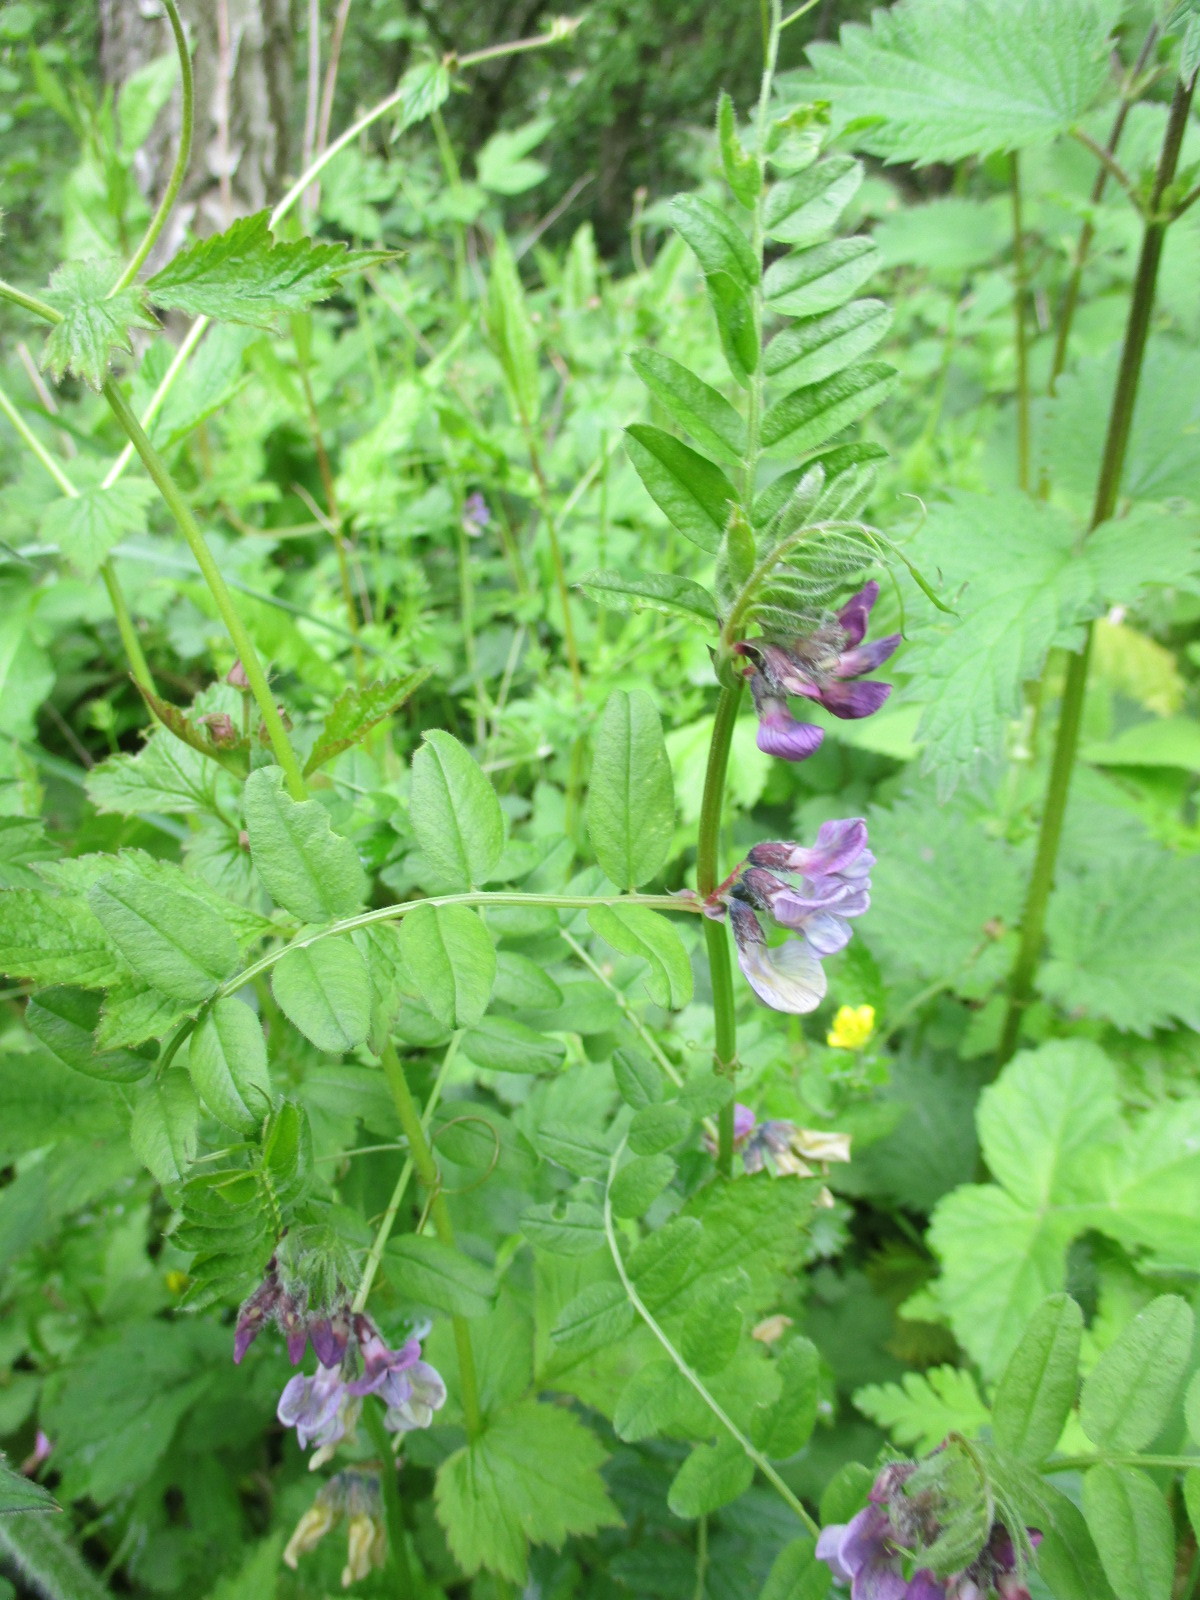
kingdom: Plantae
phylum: Tracheophyta
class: Magnoliopsida
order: Fabales
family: Fabaceae
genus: Vicia
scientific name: Vicia sepium
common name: Bush vetch
